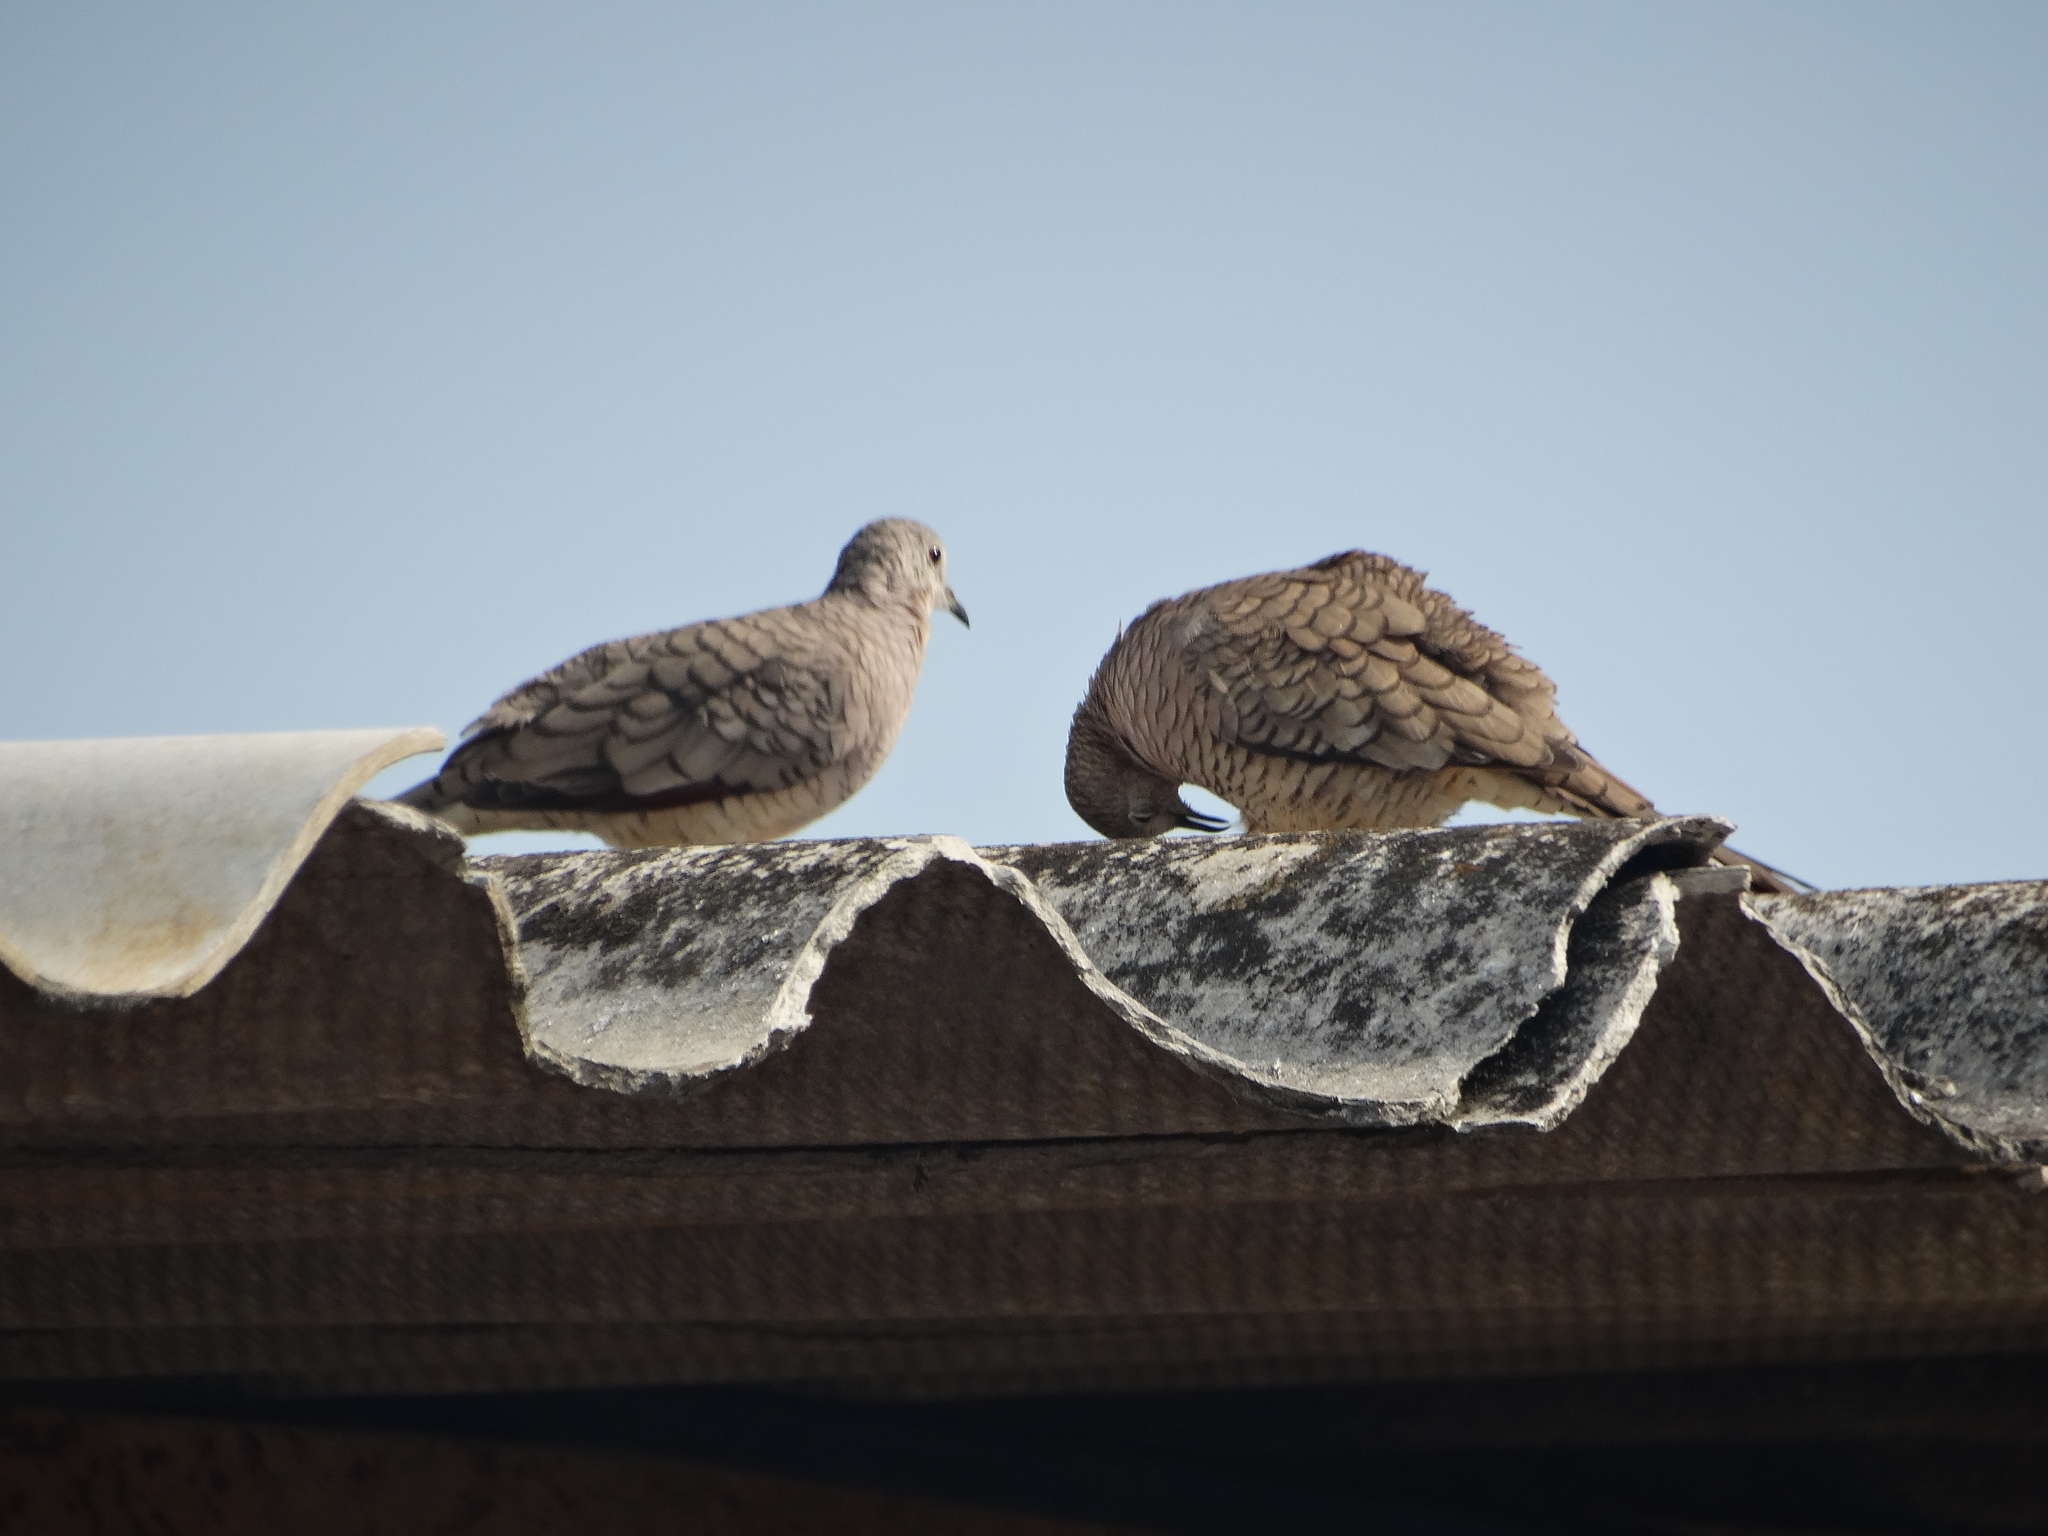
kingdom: Animalia
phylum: Chordata
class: Aves
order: Columbiformes
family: Columbidae
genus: Columbina
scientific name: Columbina inca
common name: Inca dove
